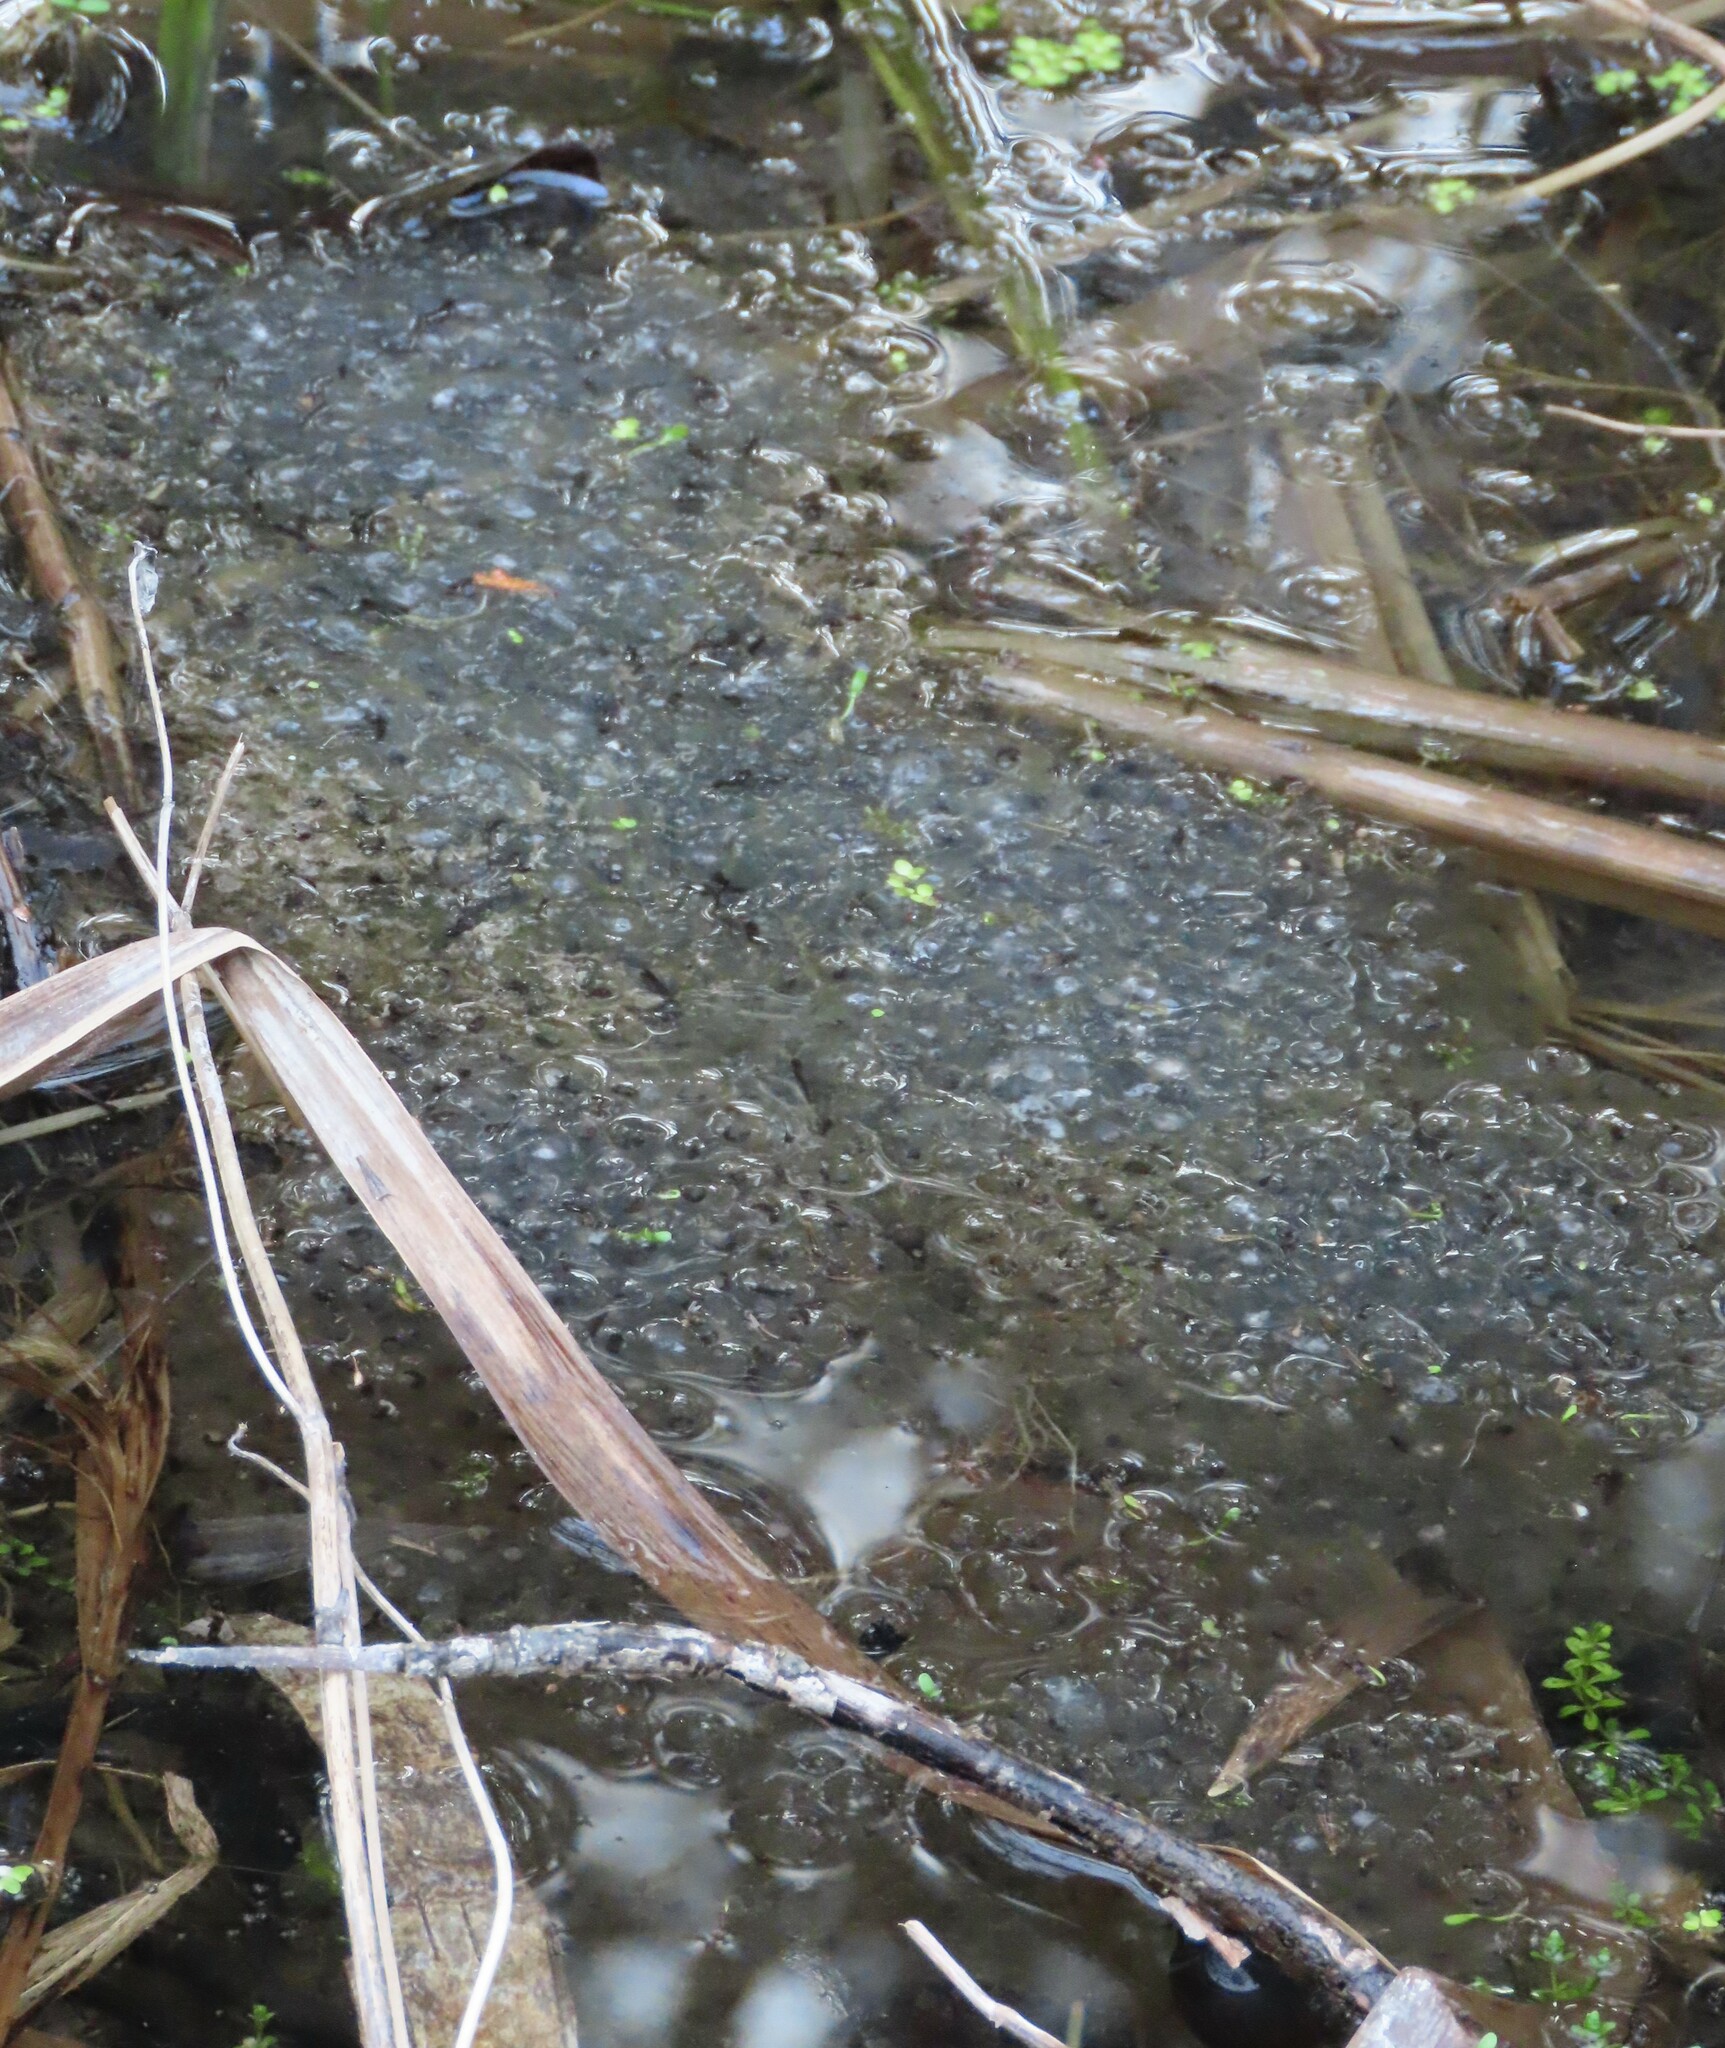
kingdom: Animalia
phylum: Chordata
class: Amphibia
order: Anura
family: Ranidae
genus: Lithobates
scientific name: Lithobates sylvaticus
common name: Wood frog
